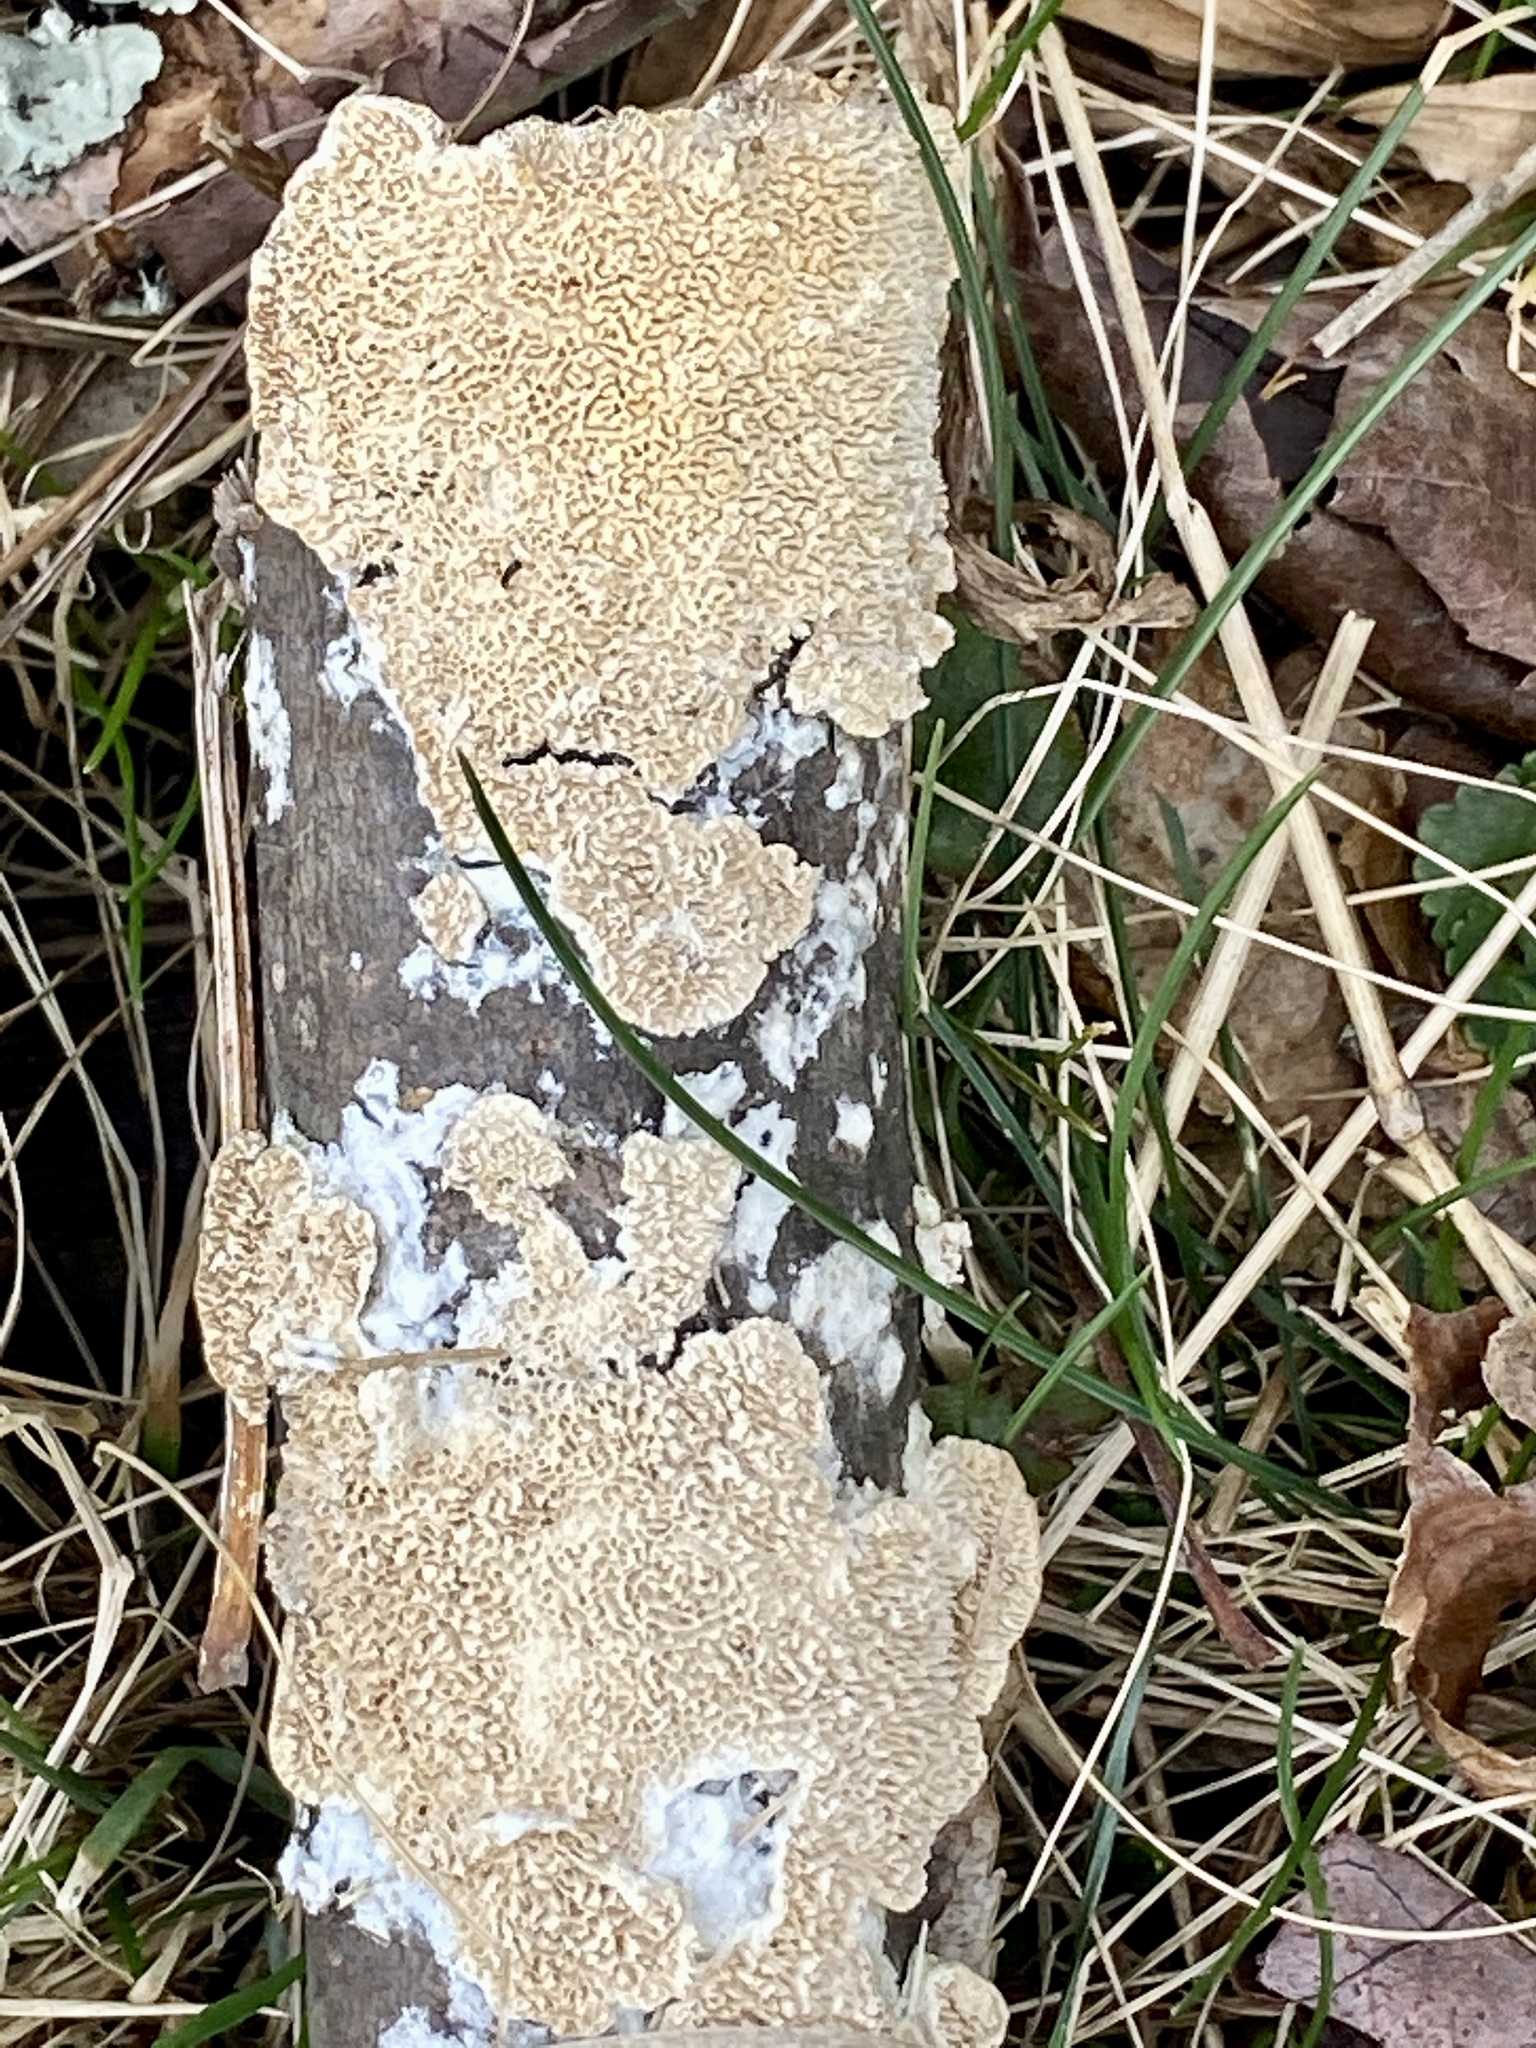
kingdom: Fungi
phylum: Basidiomycota
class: Agaricomycetes
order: Polyporales
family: Irpicaceae
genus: Irpex
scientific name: Irpex lacteus
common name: Milk-white toothed polypore
